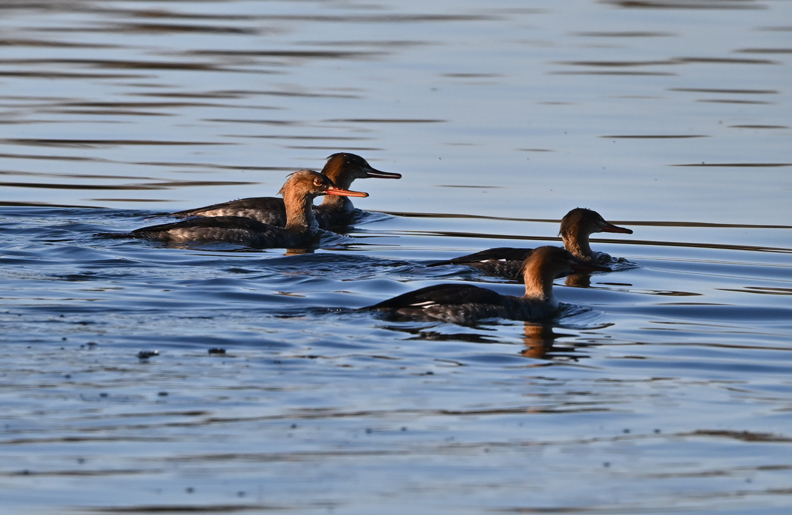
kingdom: Animalia
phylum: Chordata
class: Aves
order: Anseriformes
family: Anatidae
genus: Mergus
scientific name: Mergus serrator
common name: Red-breasted merganser
